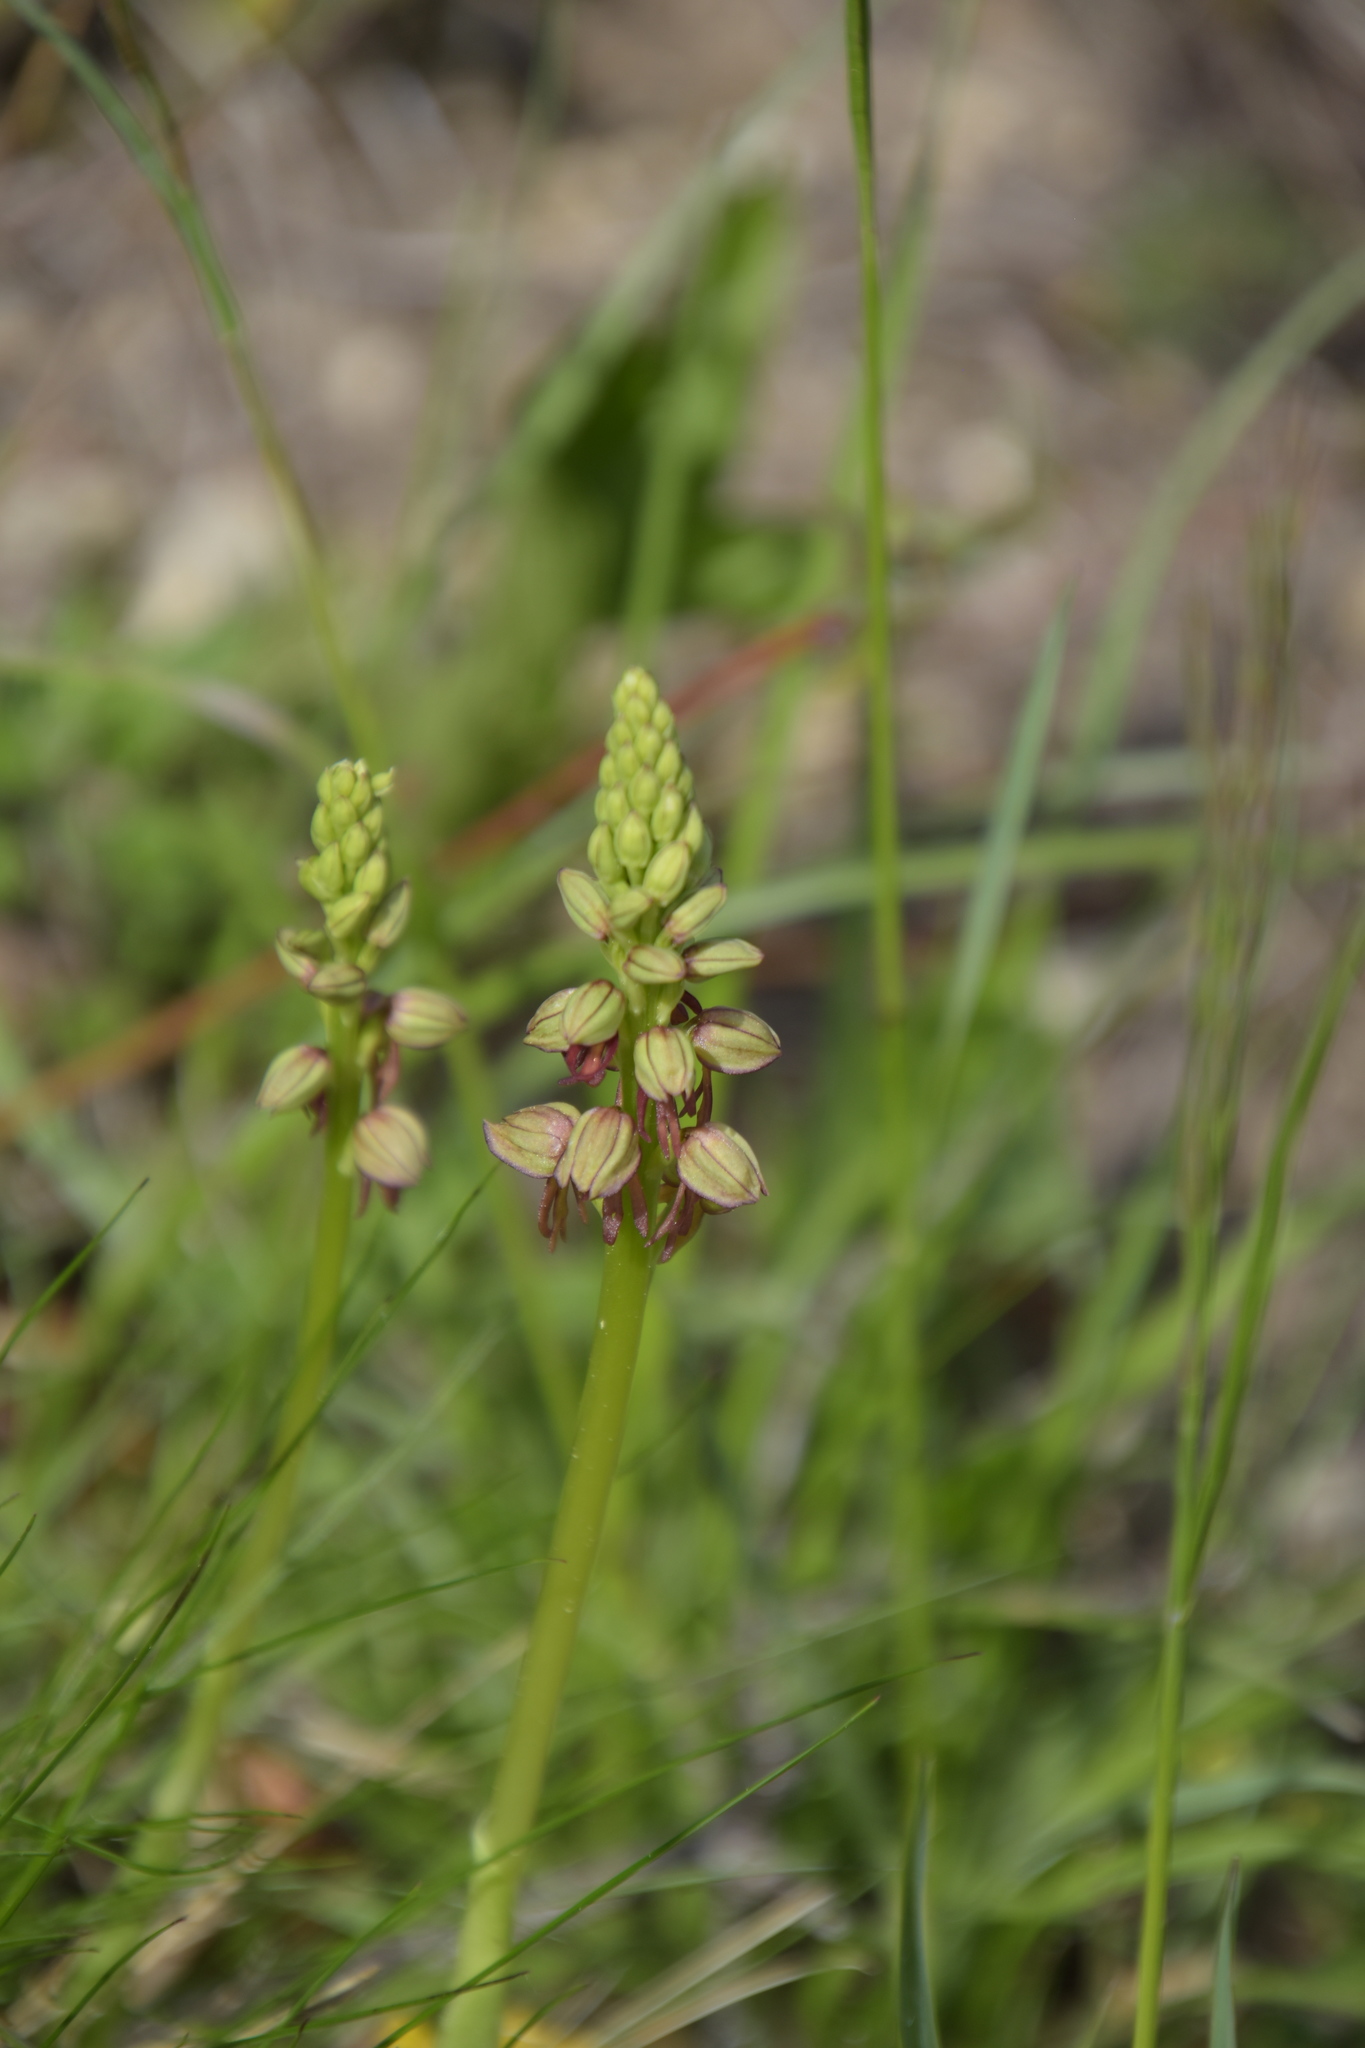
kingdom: Plantae
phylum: Tracheophyta
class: Liliopsida
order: Asparagales
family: Orchidaceae
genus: Orchis
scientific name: Orchis anthropophora
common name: Man orchid
